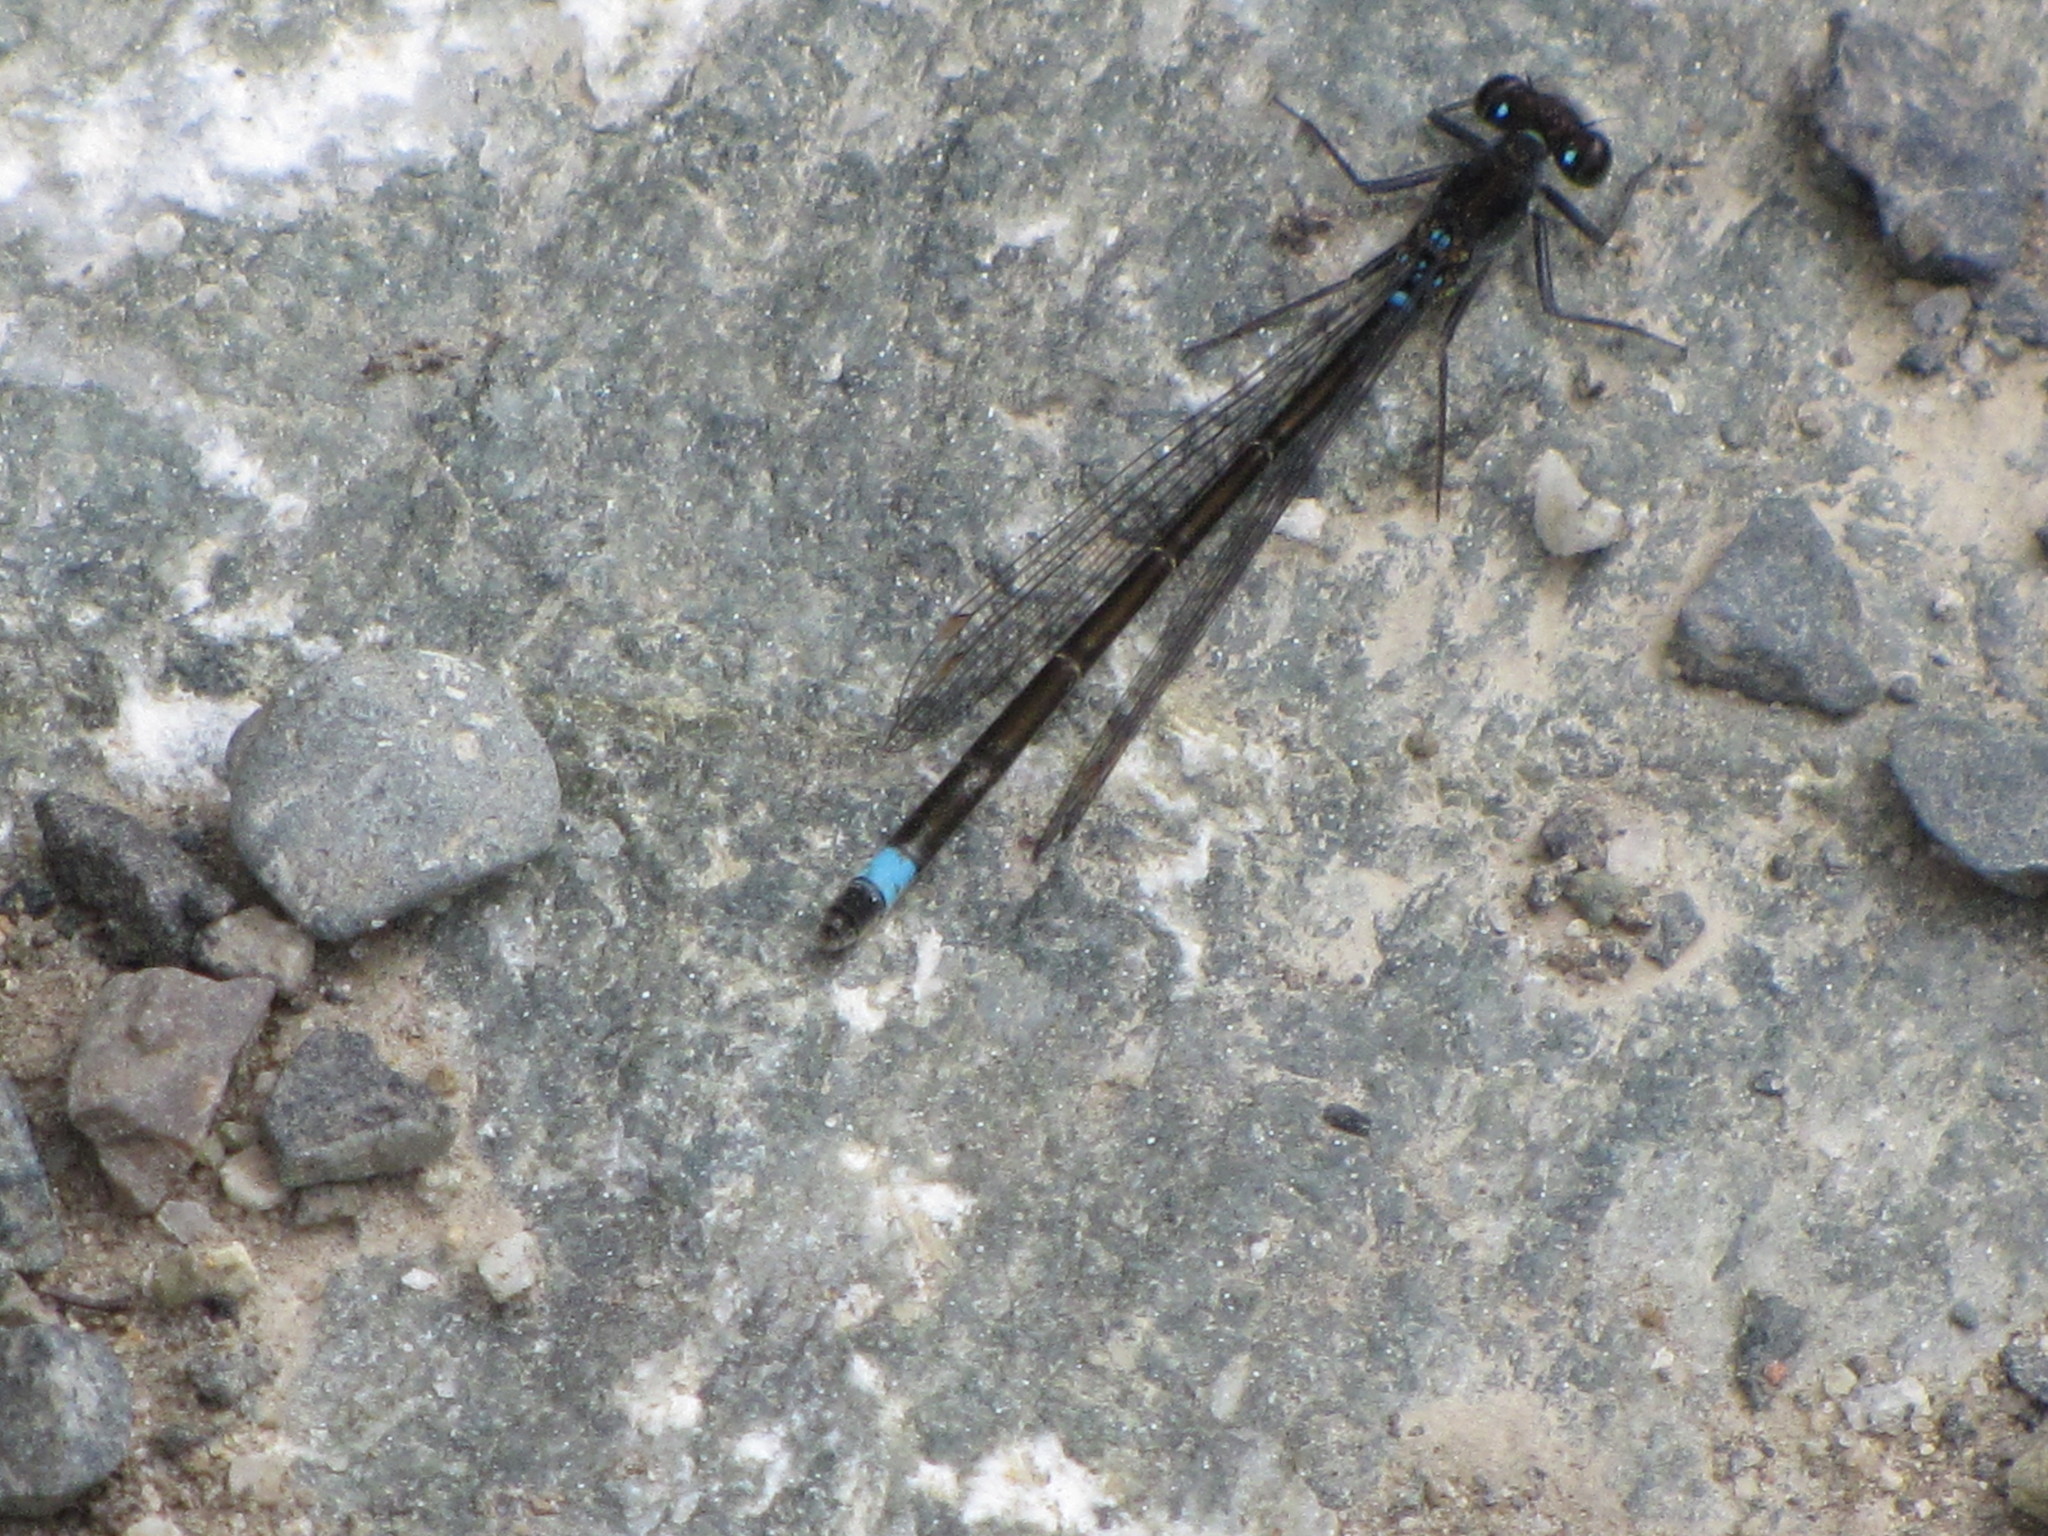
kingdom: Animalia
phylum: Arthropoda
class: Insecta
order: Odonata
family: Coenagrionidae
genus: Ischnura
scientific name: Ischnura cervula
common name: Pacific forktail
